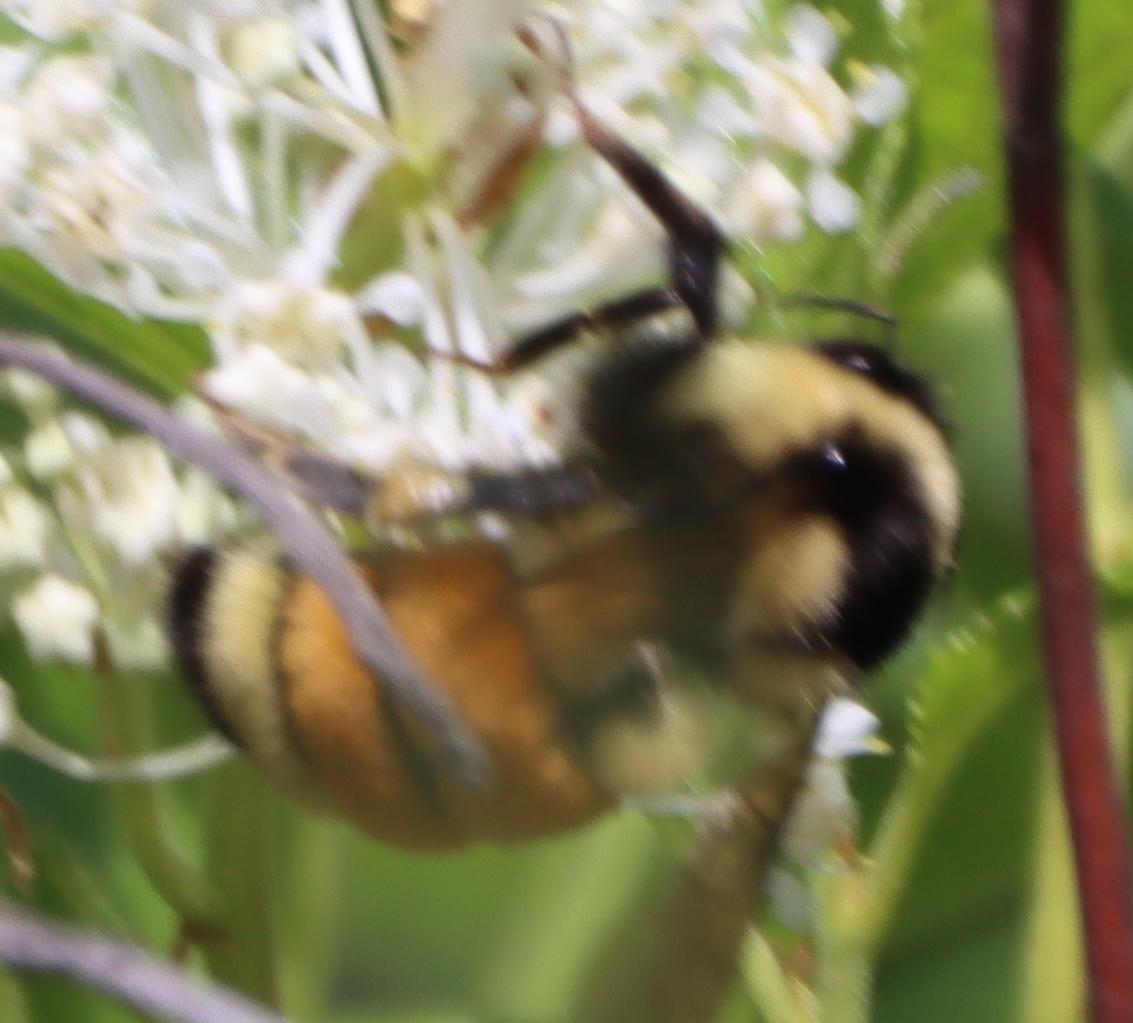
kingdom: Animalia
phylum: Arthropoda
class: Insecta
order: Hymenoptera
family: Apidae
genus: Bombus
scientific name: Bombus ternarius
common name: Tri-colored bumble bee
